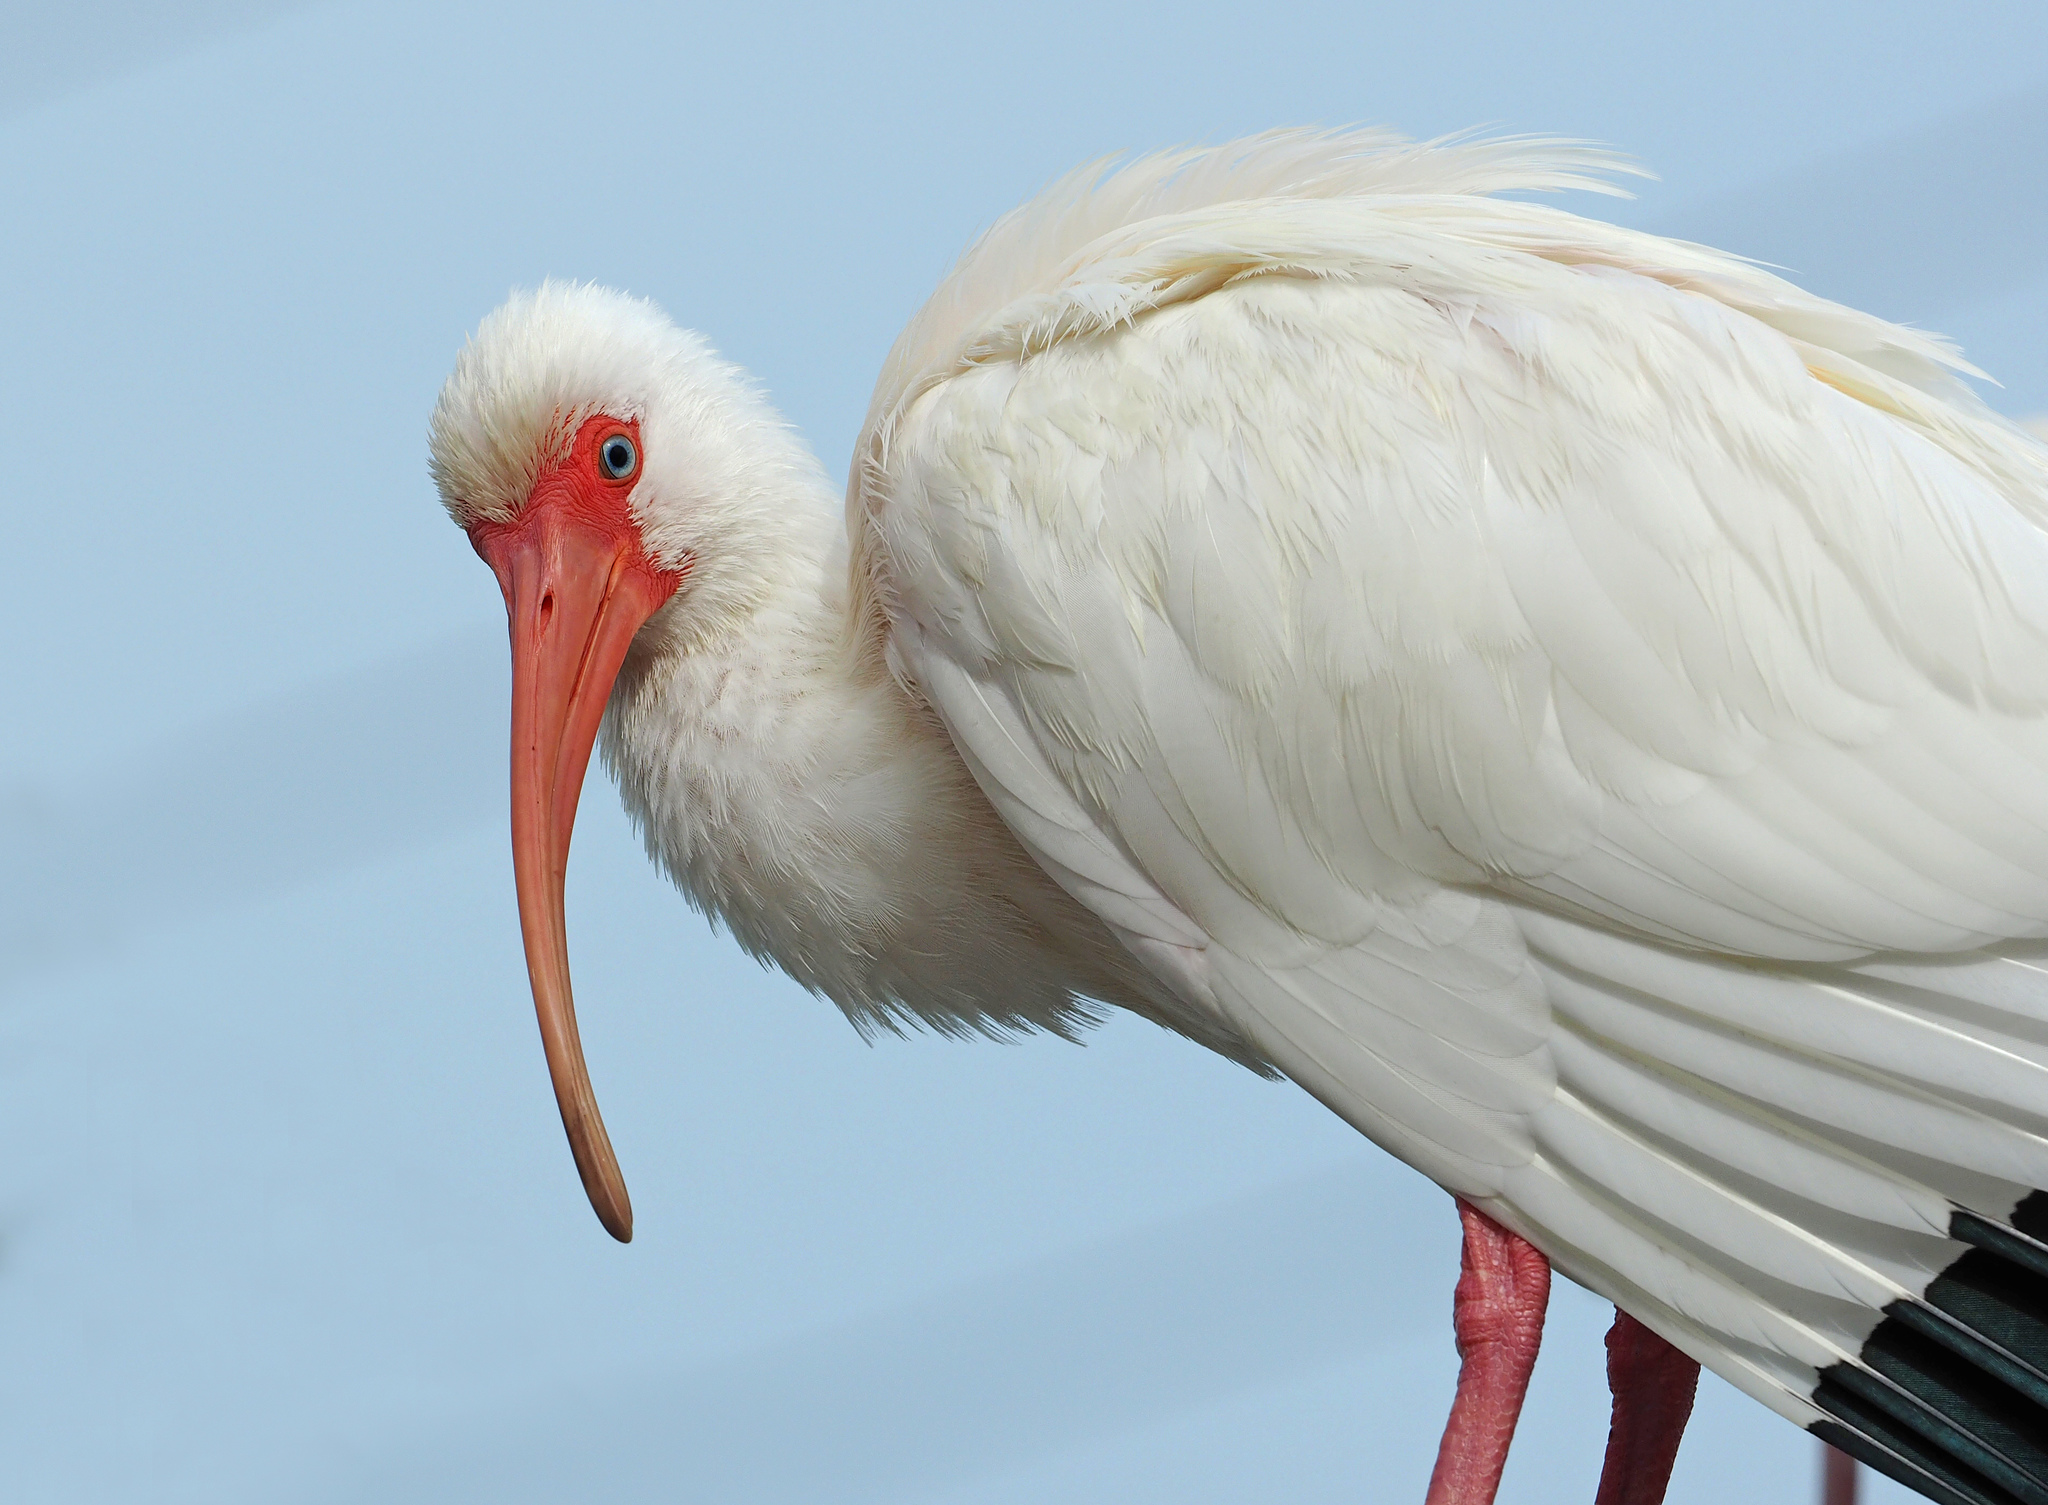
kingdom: Animalia
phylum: Chordata
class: Aves
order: Pelecaniformes
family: Threskiornithidae
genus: Eudocimus
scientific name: Eudocimus albus
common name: White ibis
